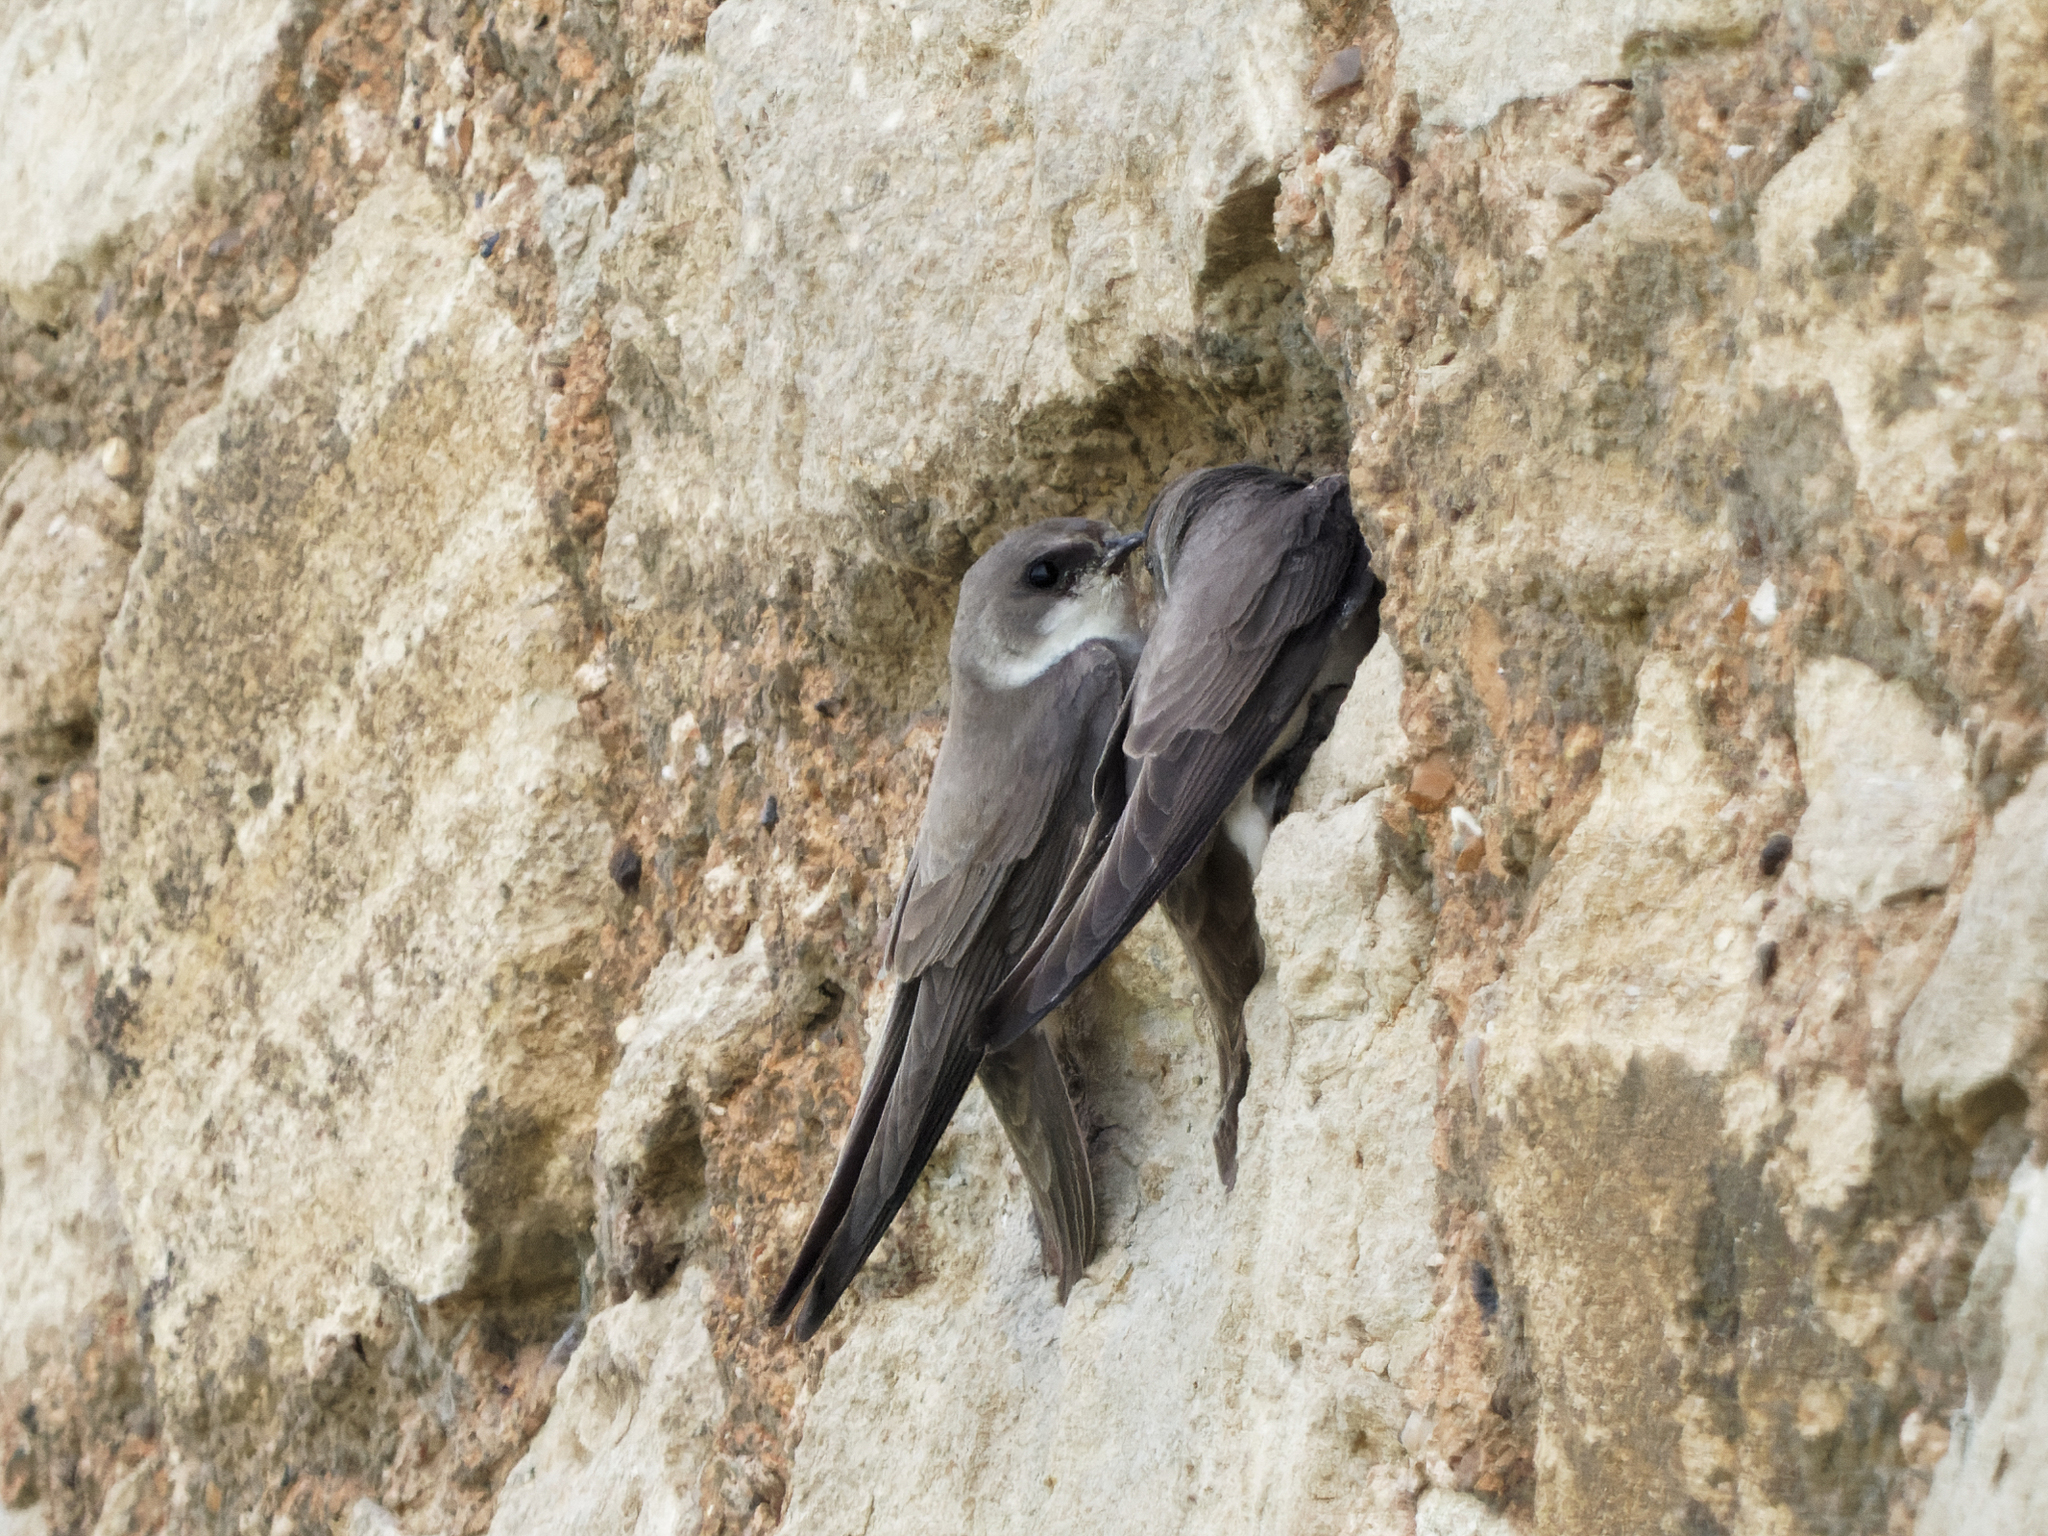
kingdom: Animalia
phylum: Chordata
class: Aves
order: Passeriformes
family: Hirundinidae
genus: Riparia
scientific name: Riparia riparia
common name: Sand martin
